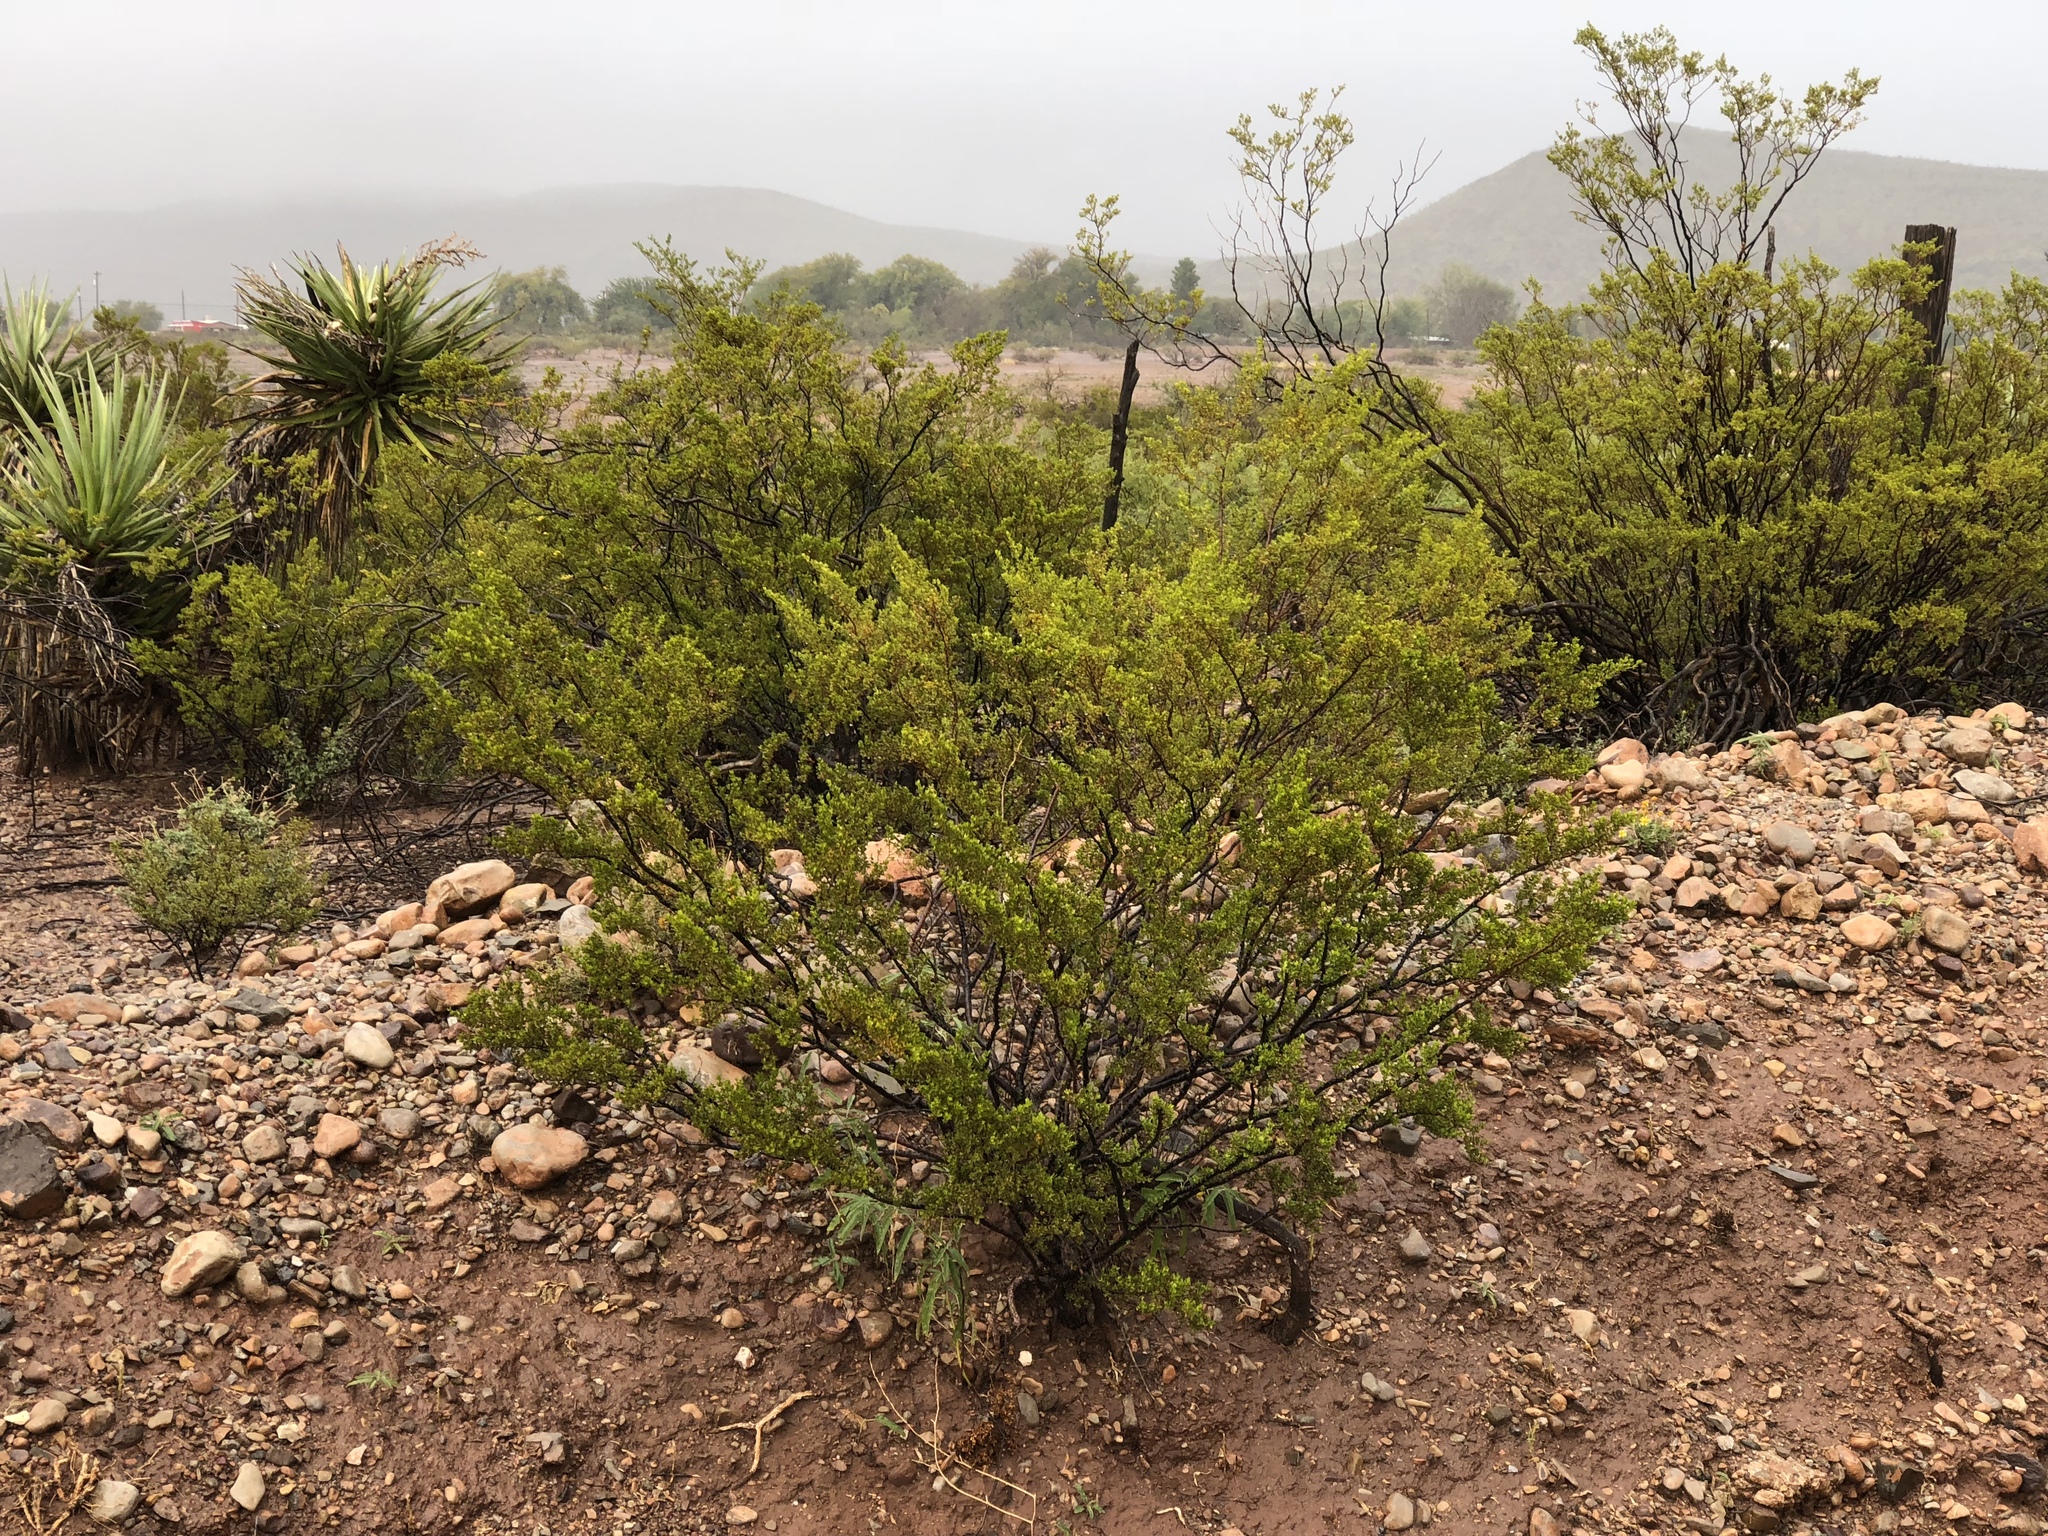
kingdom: Plantae
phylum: Tracheophyta
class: Magnoliopsida
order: Zygophyllales
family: Zygophyllaceae
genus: Larrea
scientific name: Larrea tridentata
